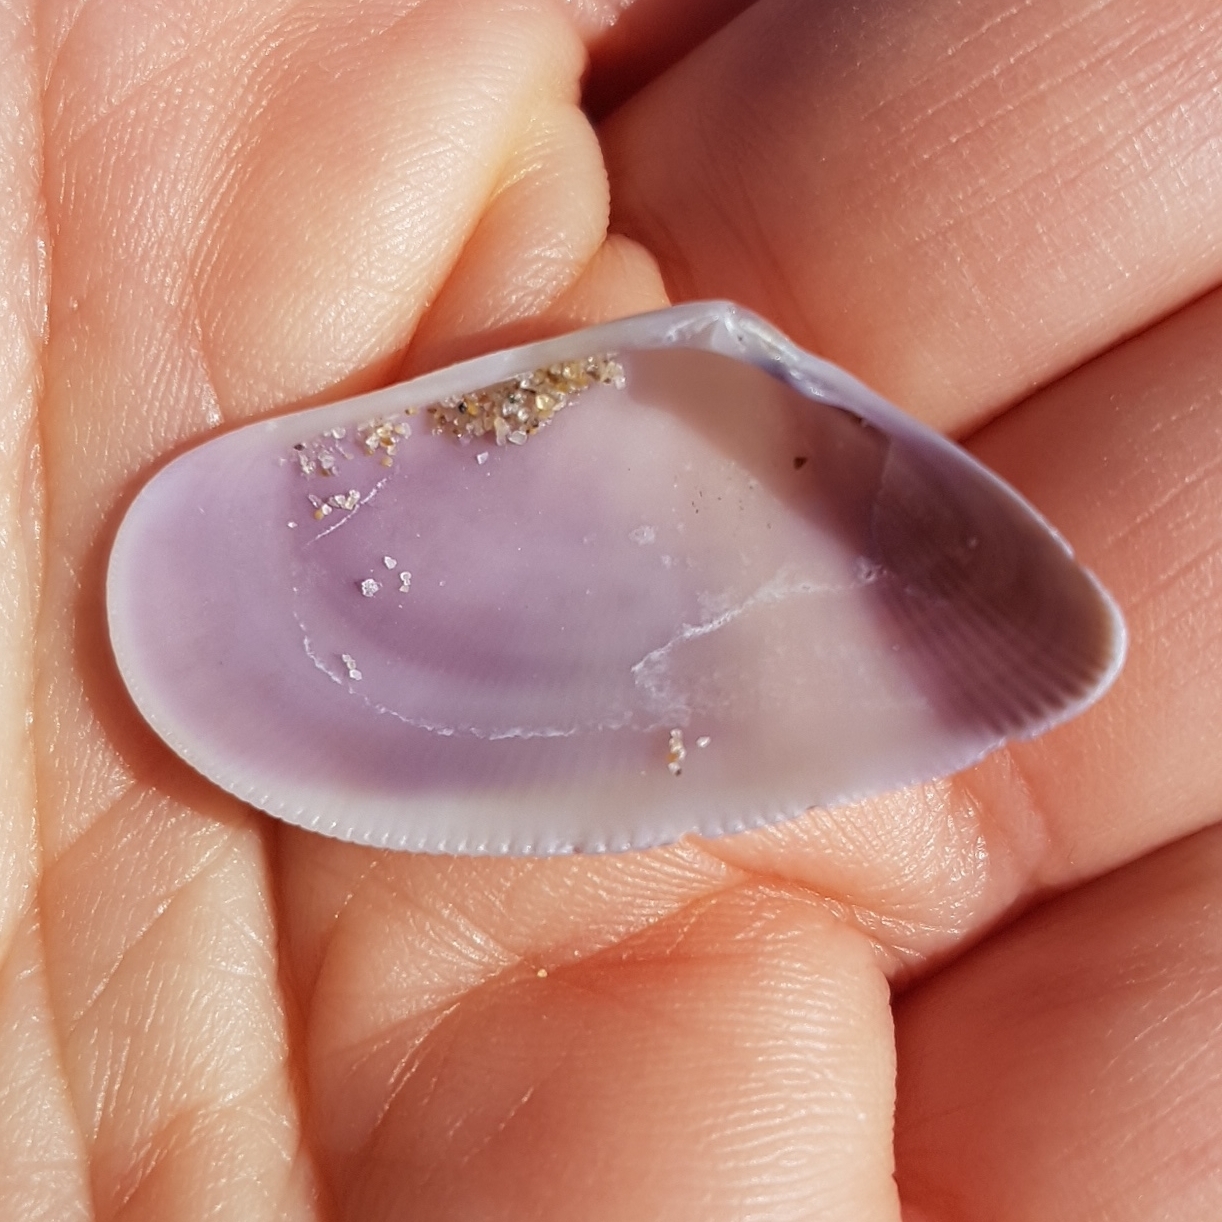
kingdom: Animalia
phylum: Mollusca
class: Bivalvia
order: Cardiida
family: Donacidae
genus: Donax
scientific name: Donax semistriatus
